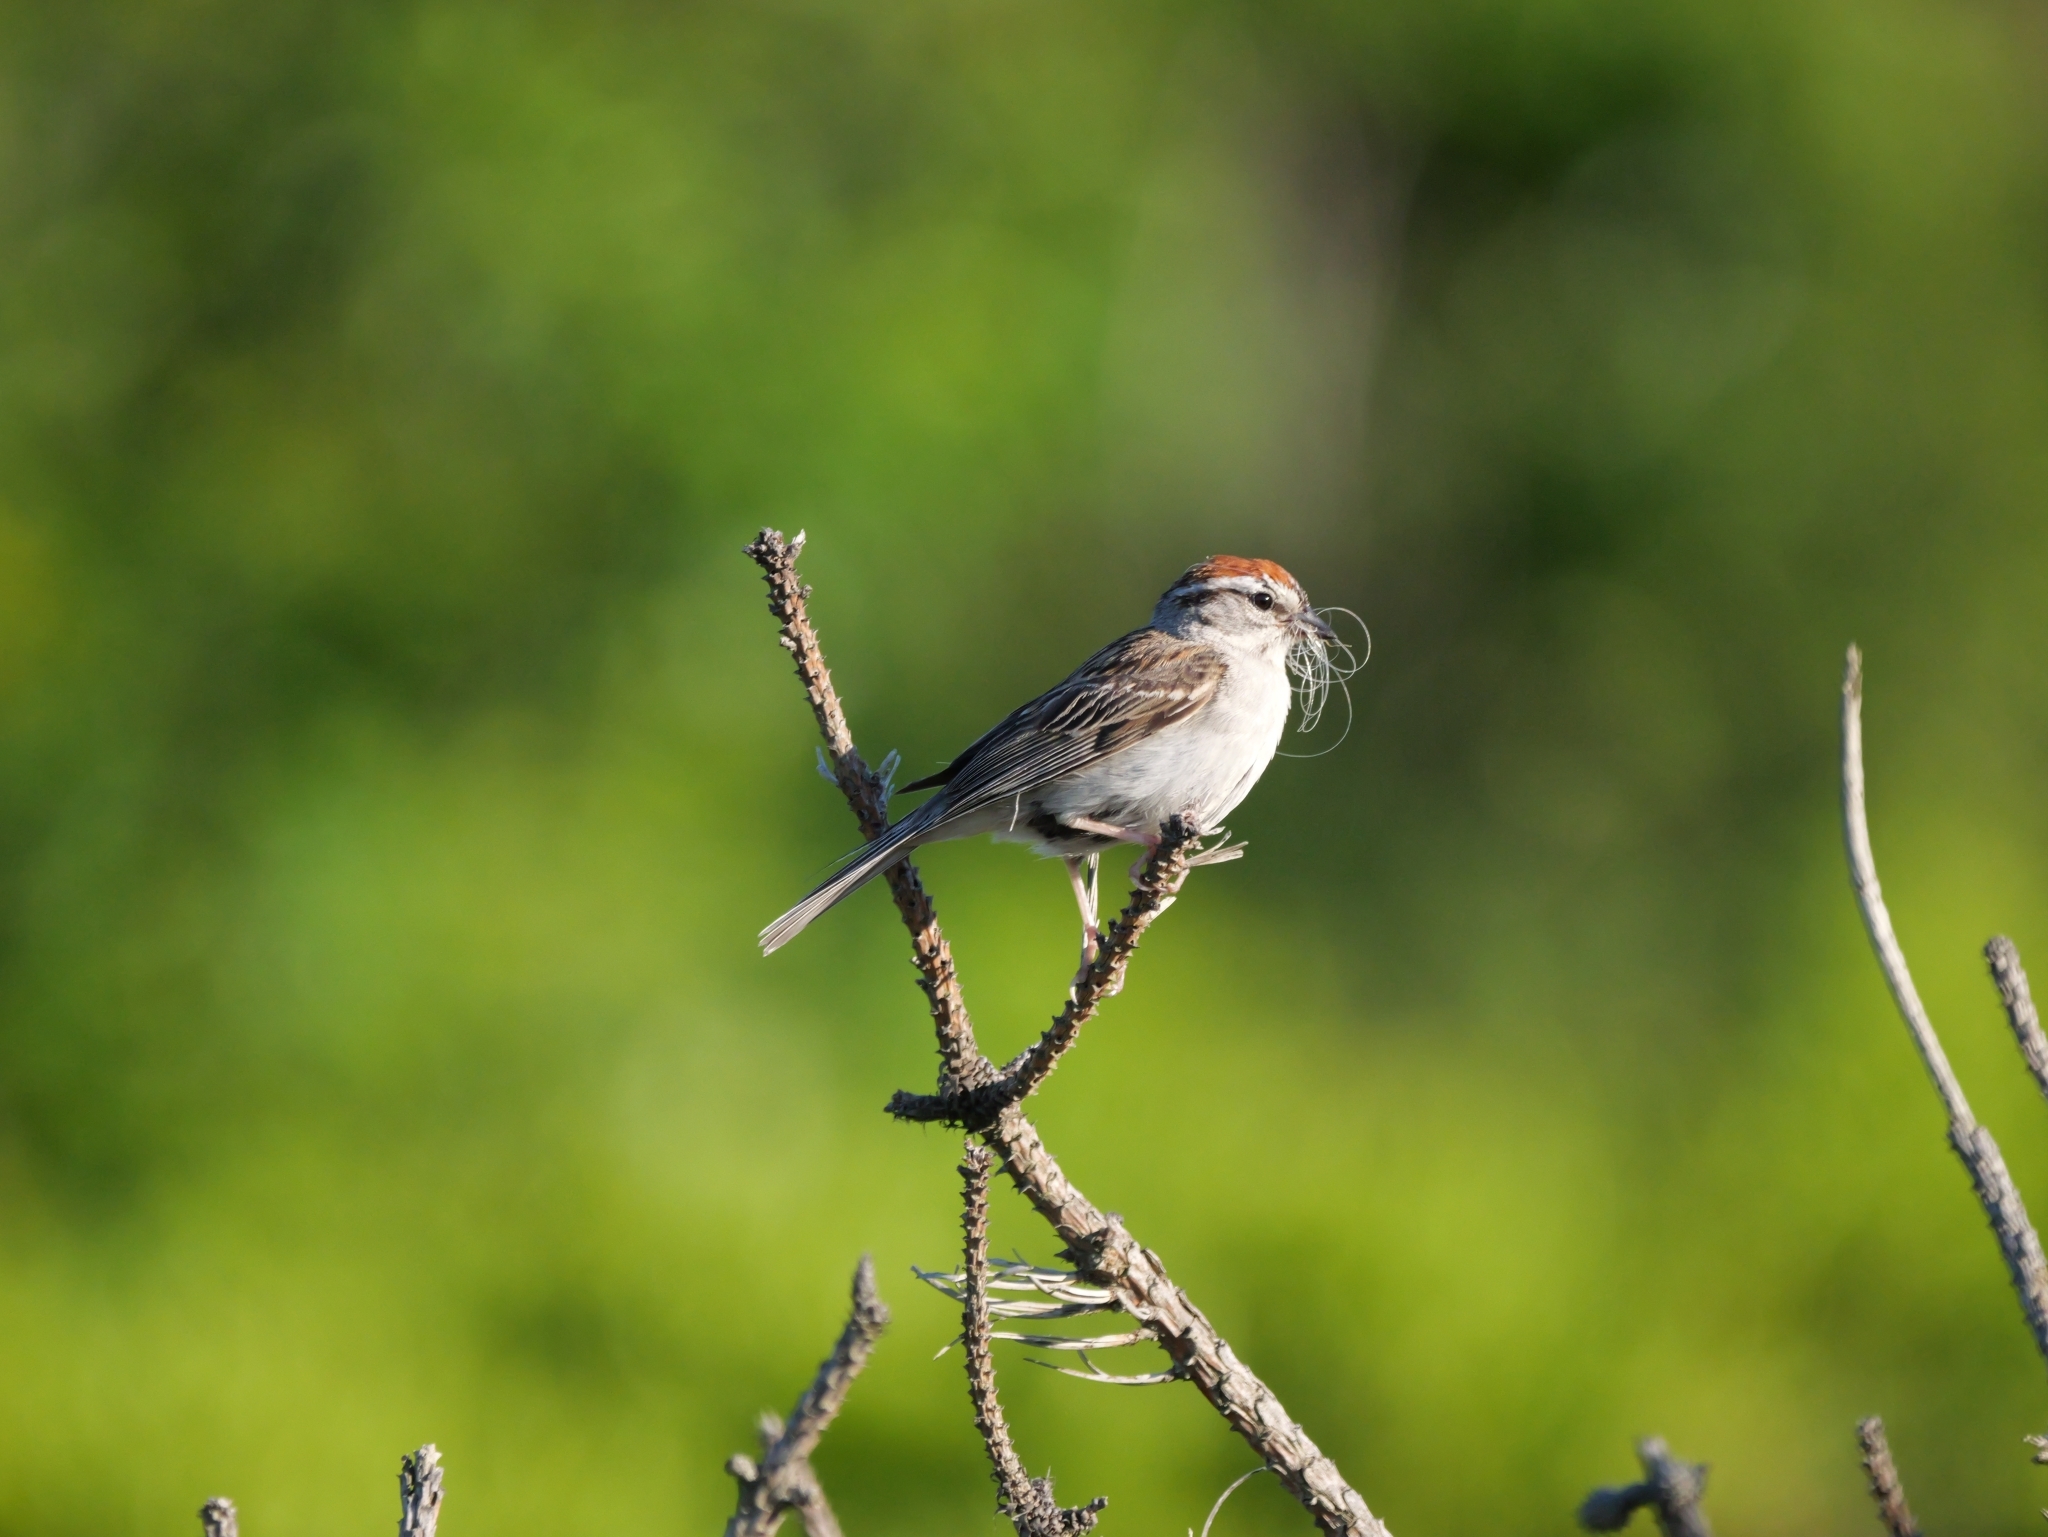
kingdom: Animalia
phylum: Chordata
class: Aves
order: Passeriformes
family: Passerellidae
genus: Spizella
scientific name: Spizella passerina
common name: Chipping sparrow
